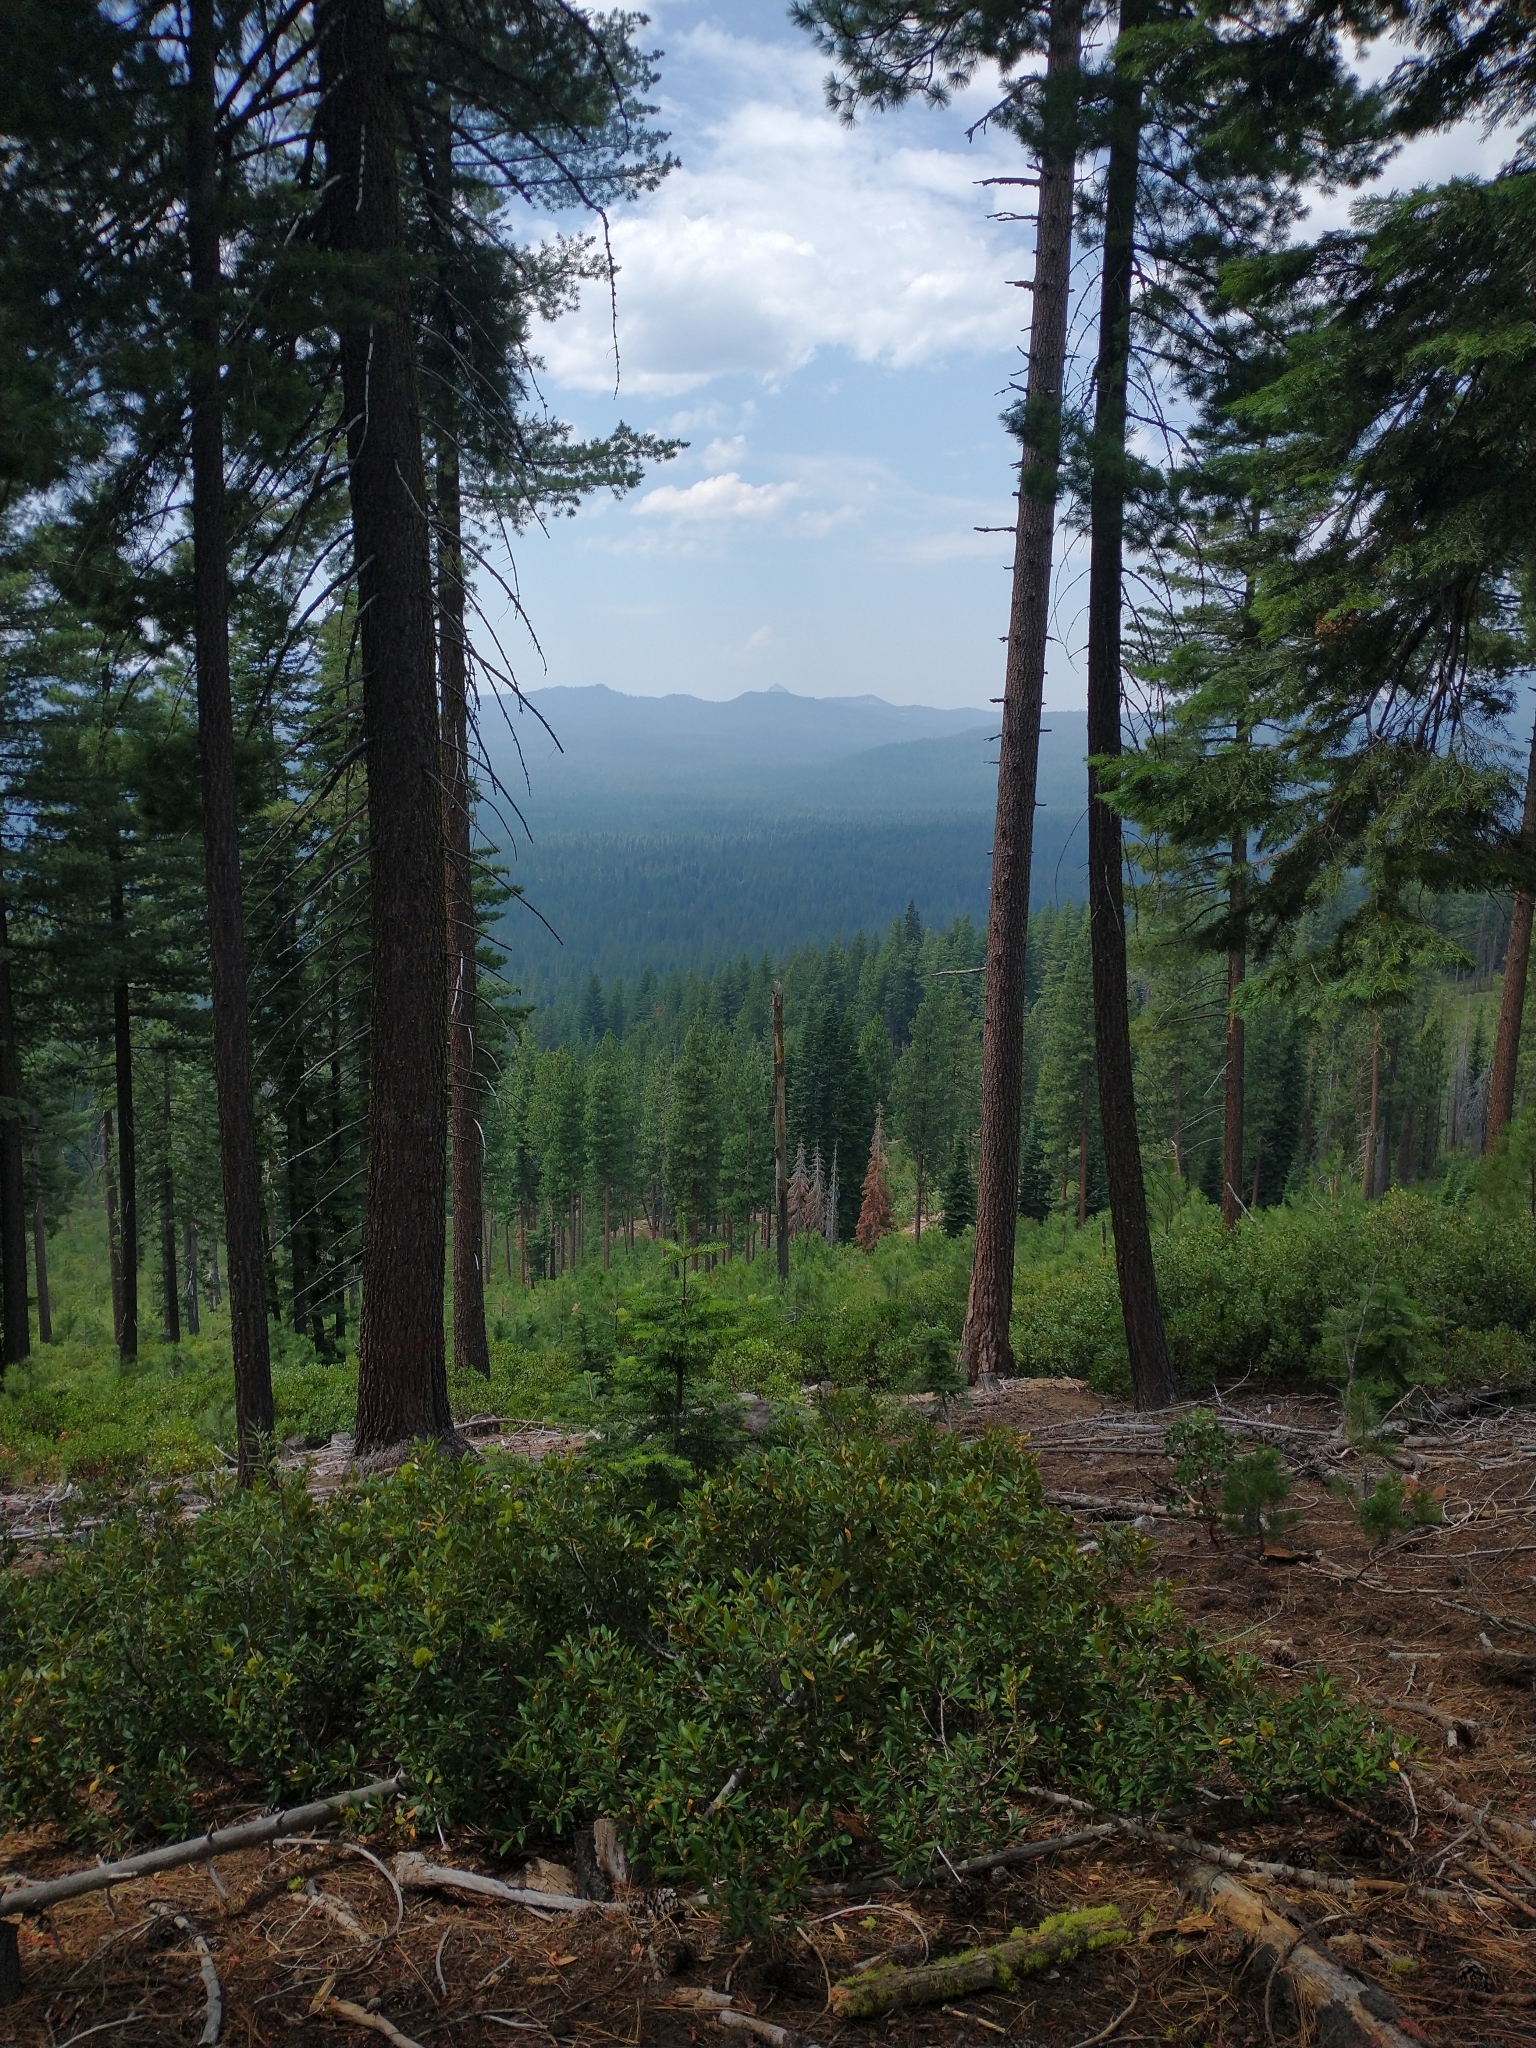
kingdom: Plantae
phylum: Tracheophyta
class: Magnoliopsida
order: Fagales
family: Fagaceae
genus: Chrysolepis
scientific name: Chrysolepis chrysophylla
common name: Giant chinquapin
